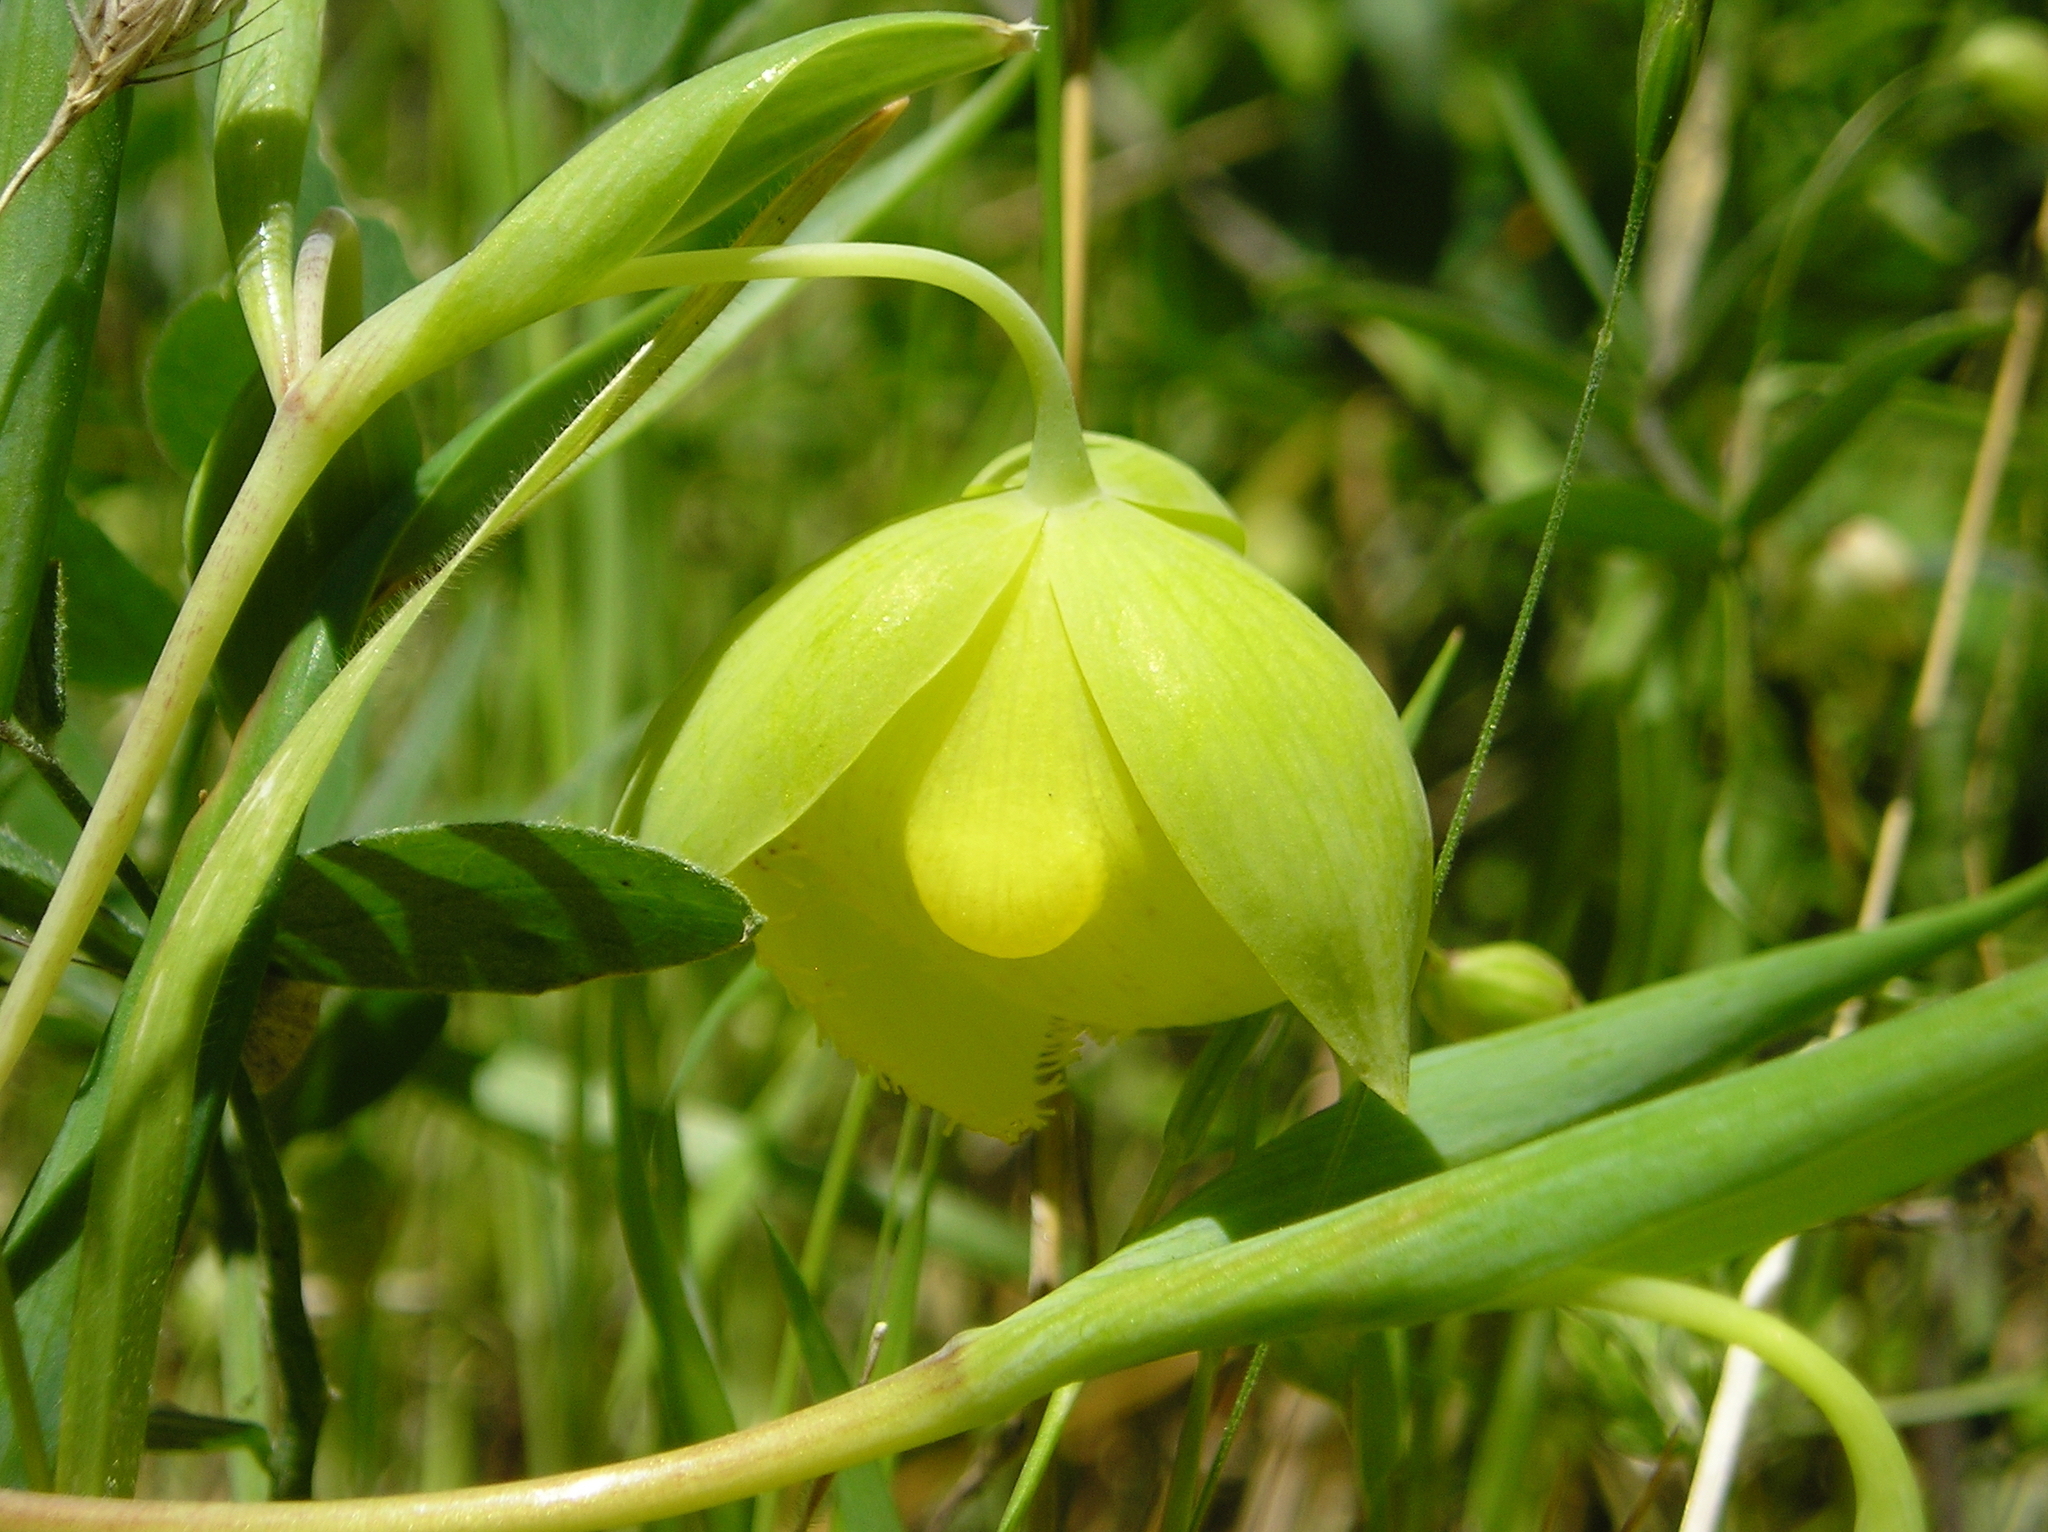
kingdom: Plantae
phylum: Tracheophyta
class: Liliopsida
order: Liliales
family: Liliaceae
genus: Calochortus
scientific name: Calochortus pulchellus
